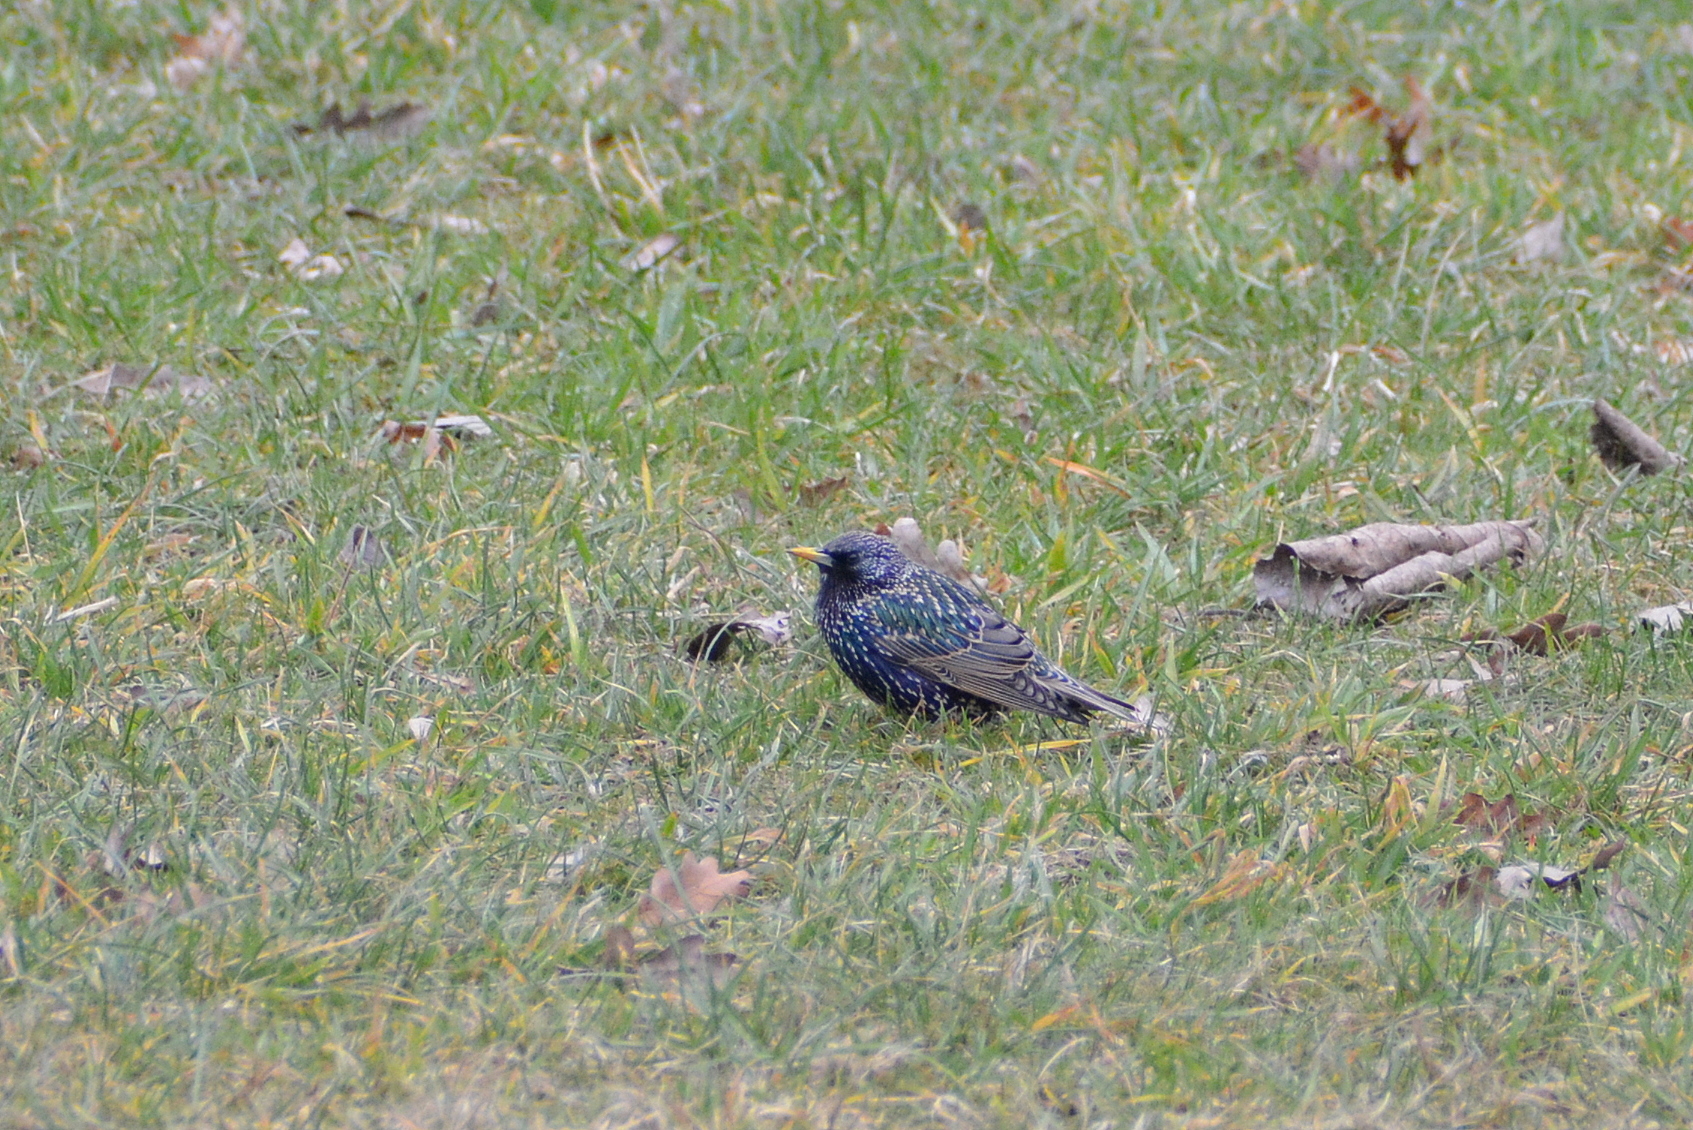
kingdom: Animalia
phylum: Chordata
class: Aves
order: Passeriformes
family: Sturnidae
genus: Sturnus
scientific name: Sturnus vulgaris
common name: Common starling
